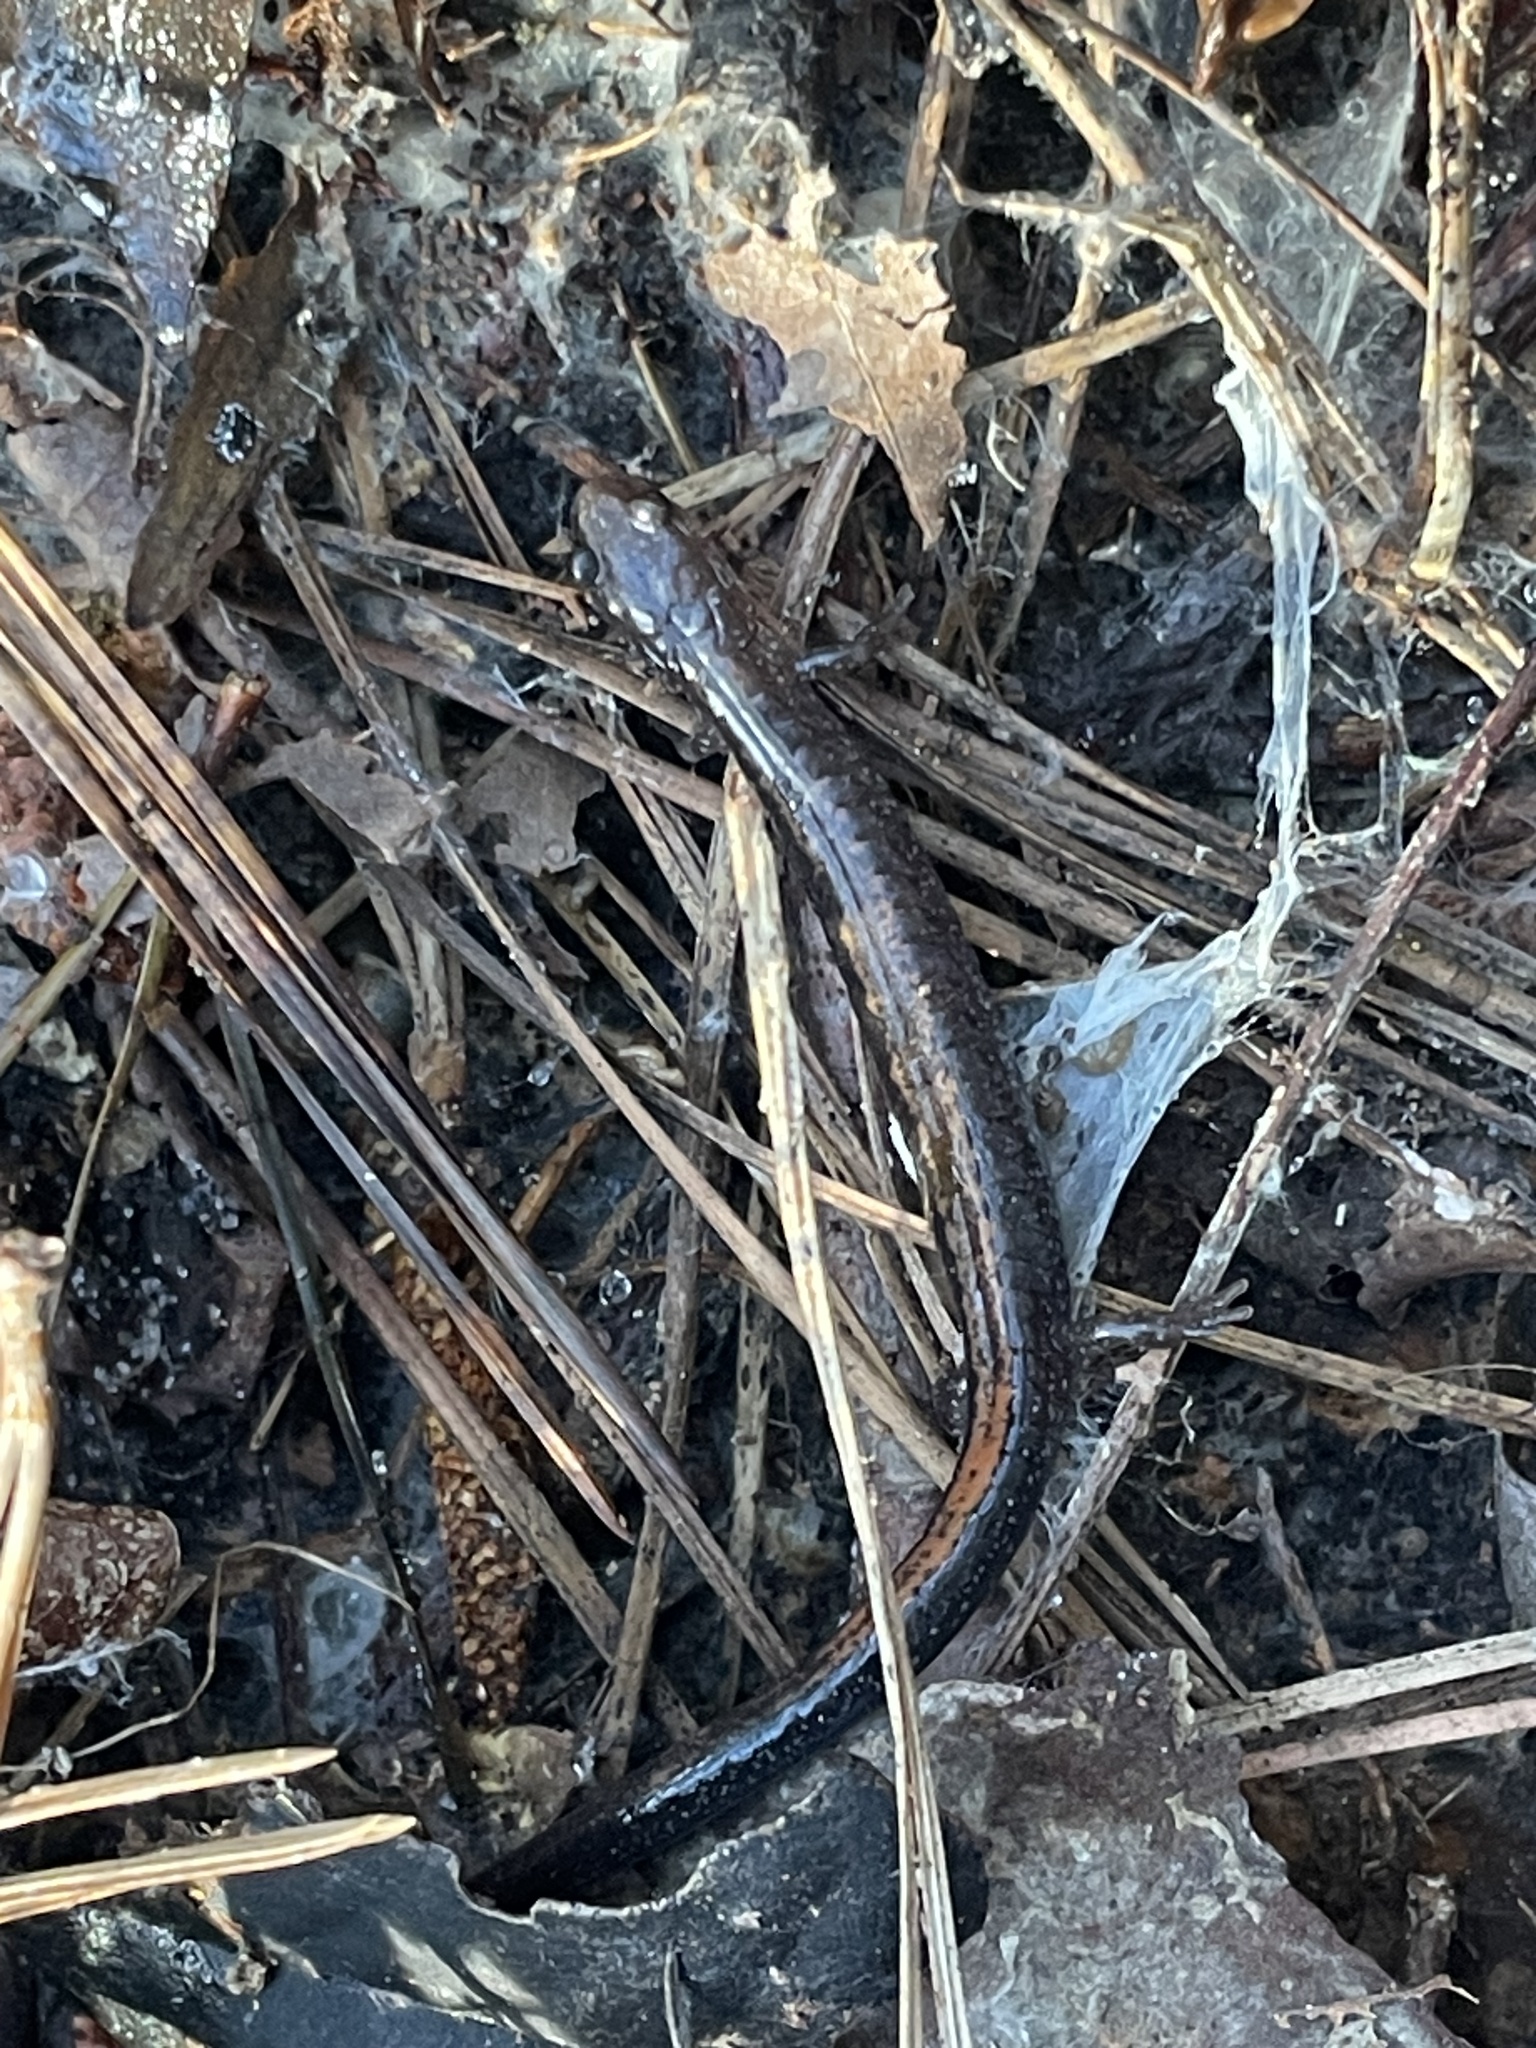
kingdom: Animalia
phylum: Chordata
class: Amphibia
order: Caudata
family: Plethodontidae
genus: Plethodon
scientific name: Plethodon cinereus
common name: Redback salamander
